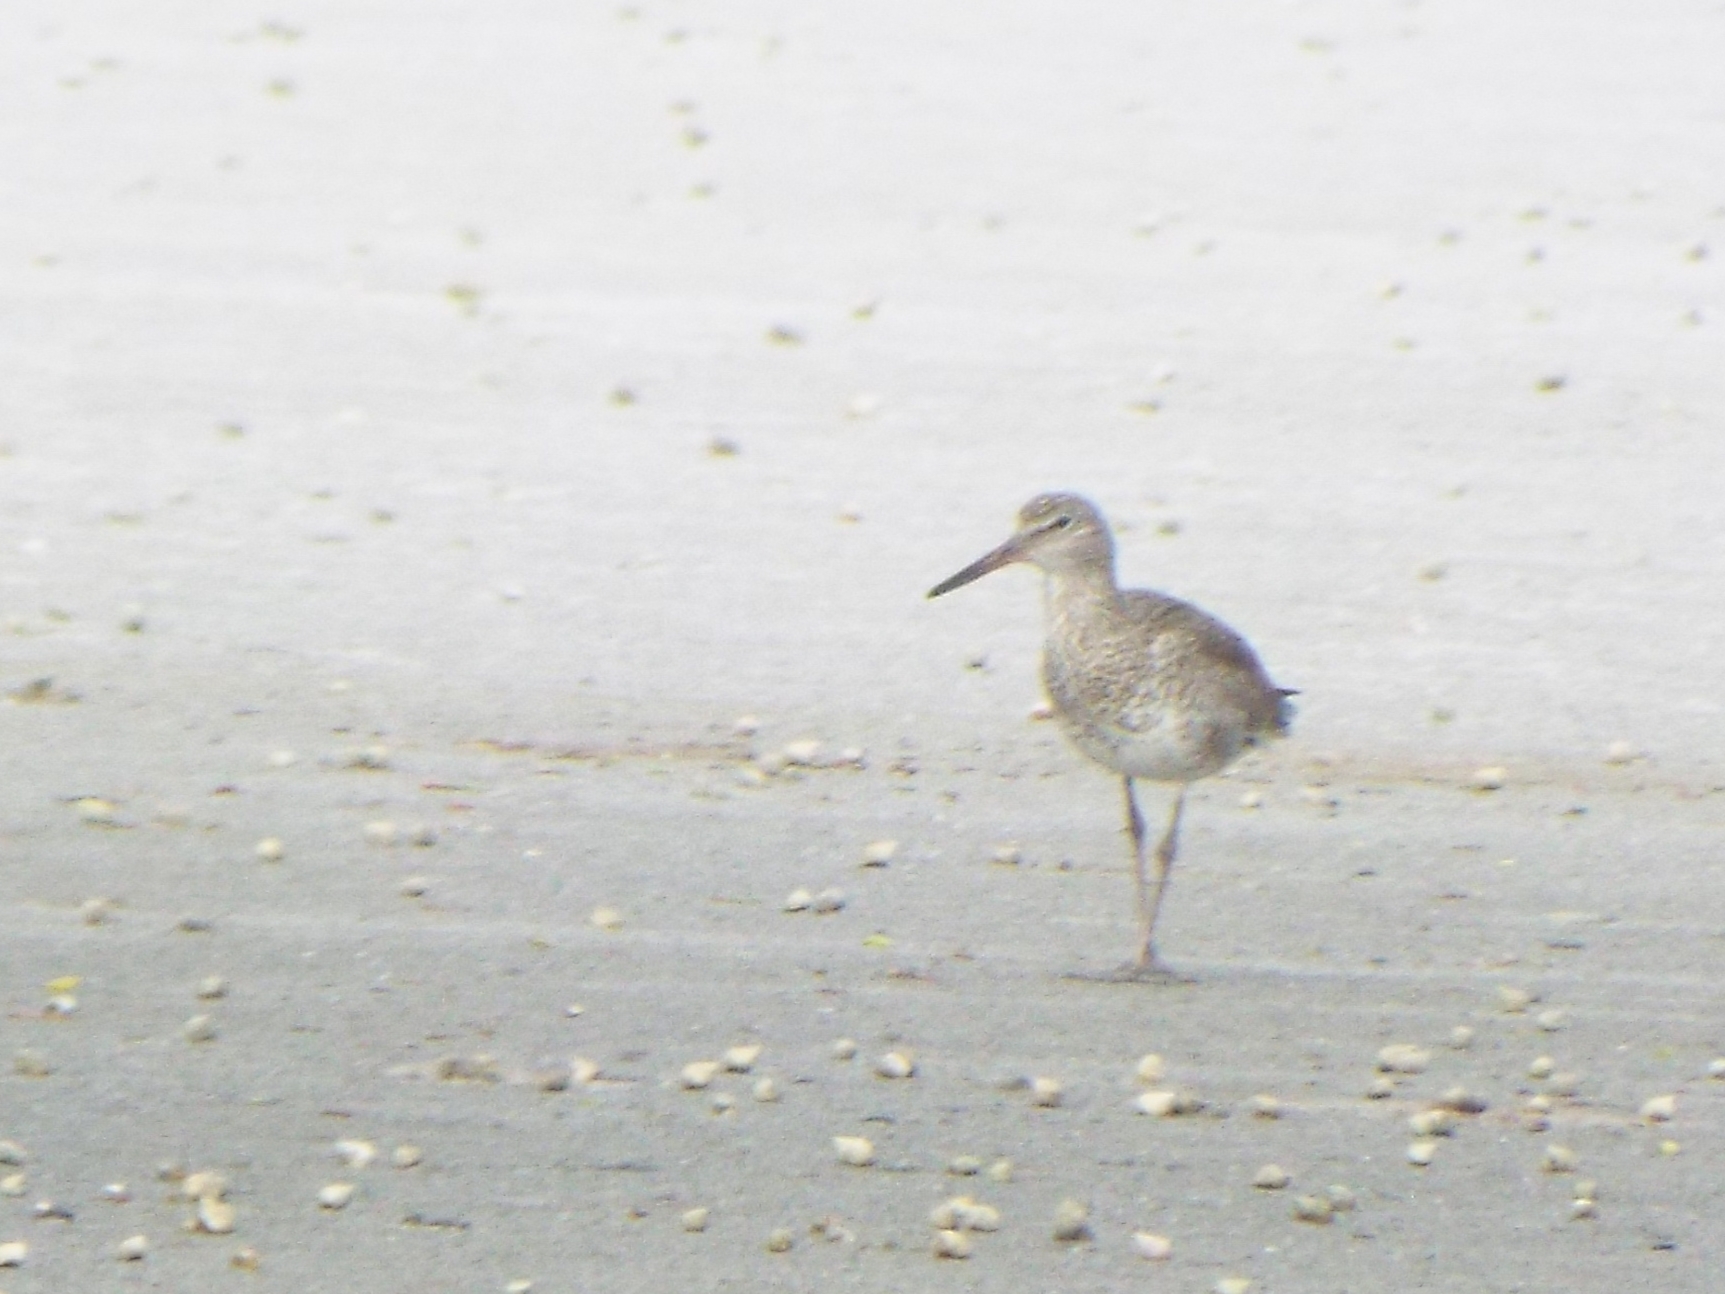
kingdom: Animalia
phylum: Chordata
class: Aves
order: Charadriiformes
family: Scolopacidae
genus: Tringa
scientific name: Tringa semipalmata
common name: Willet
